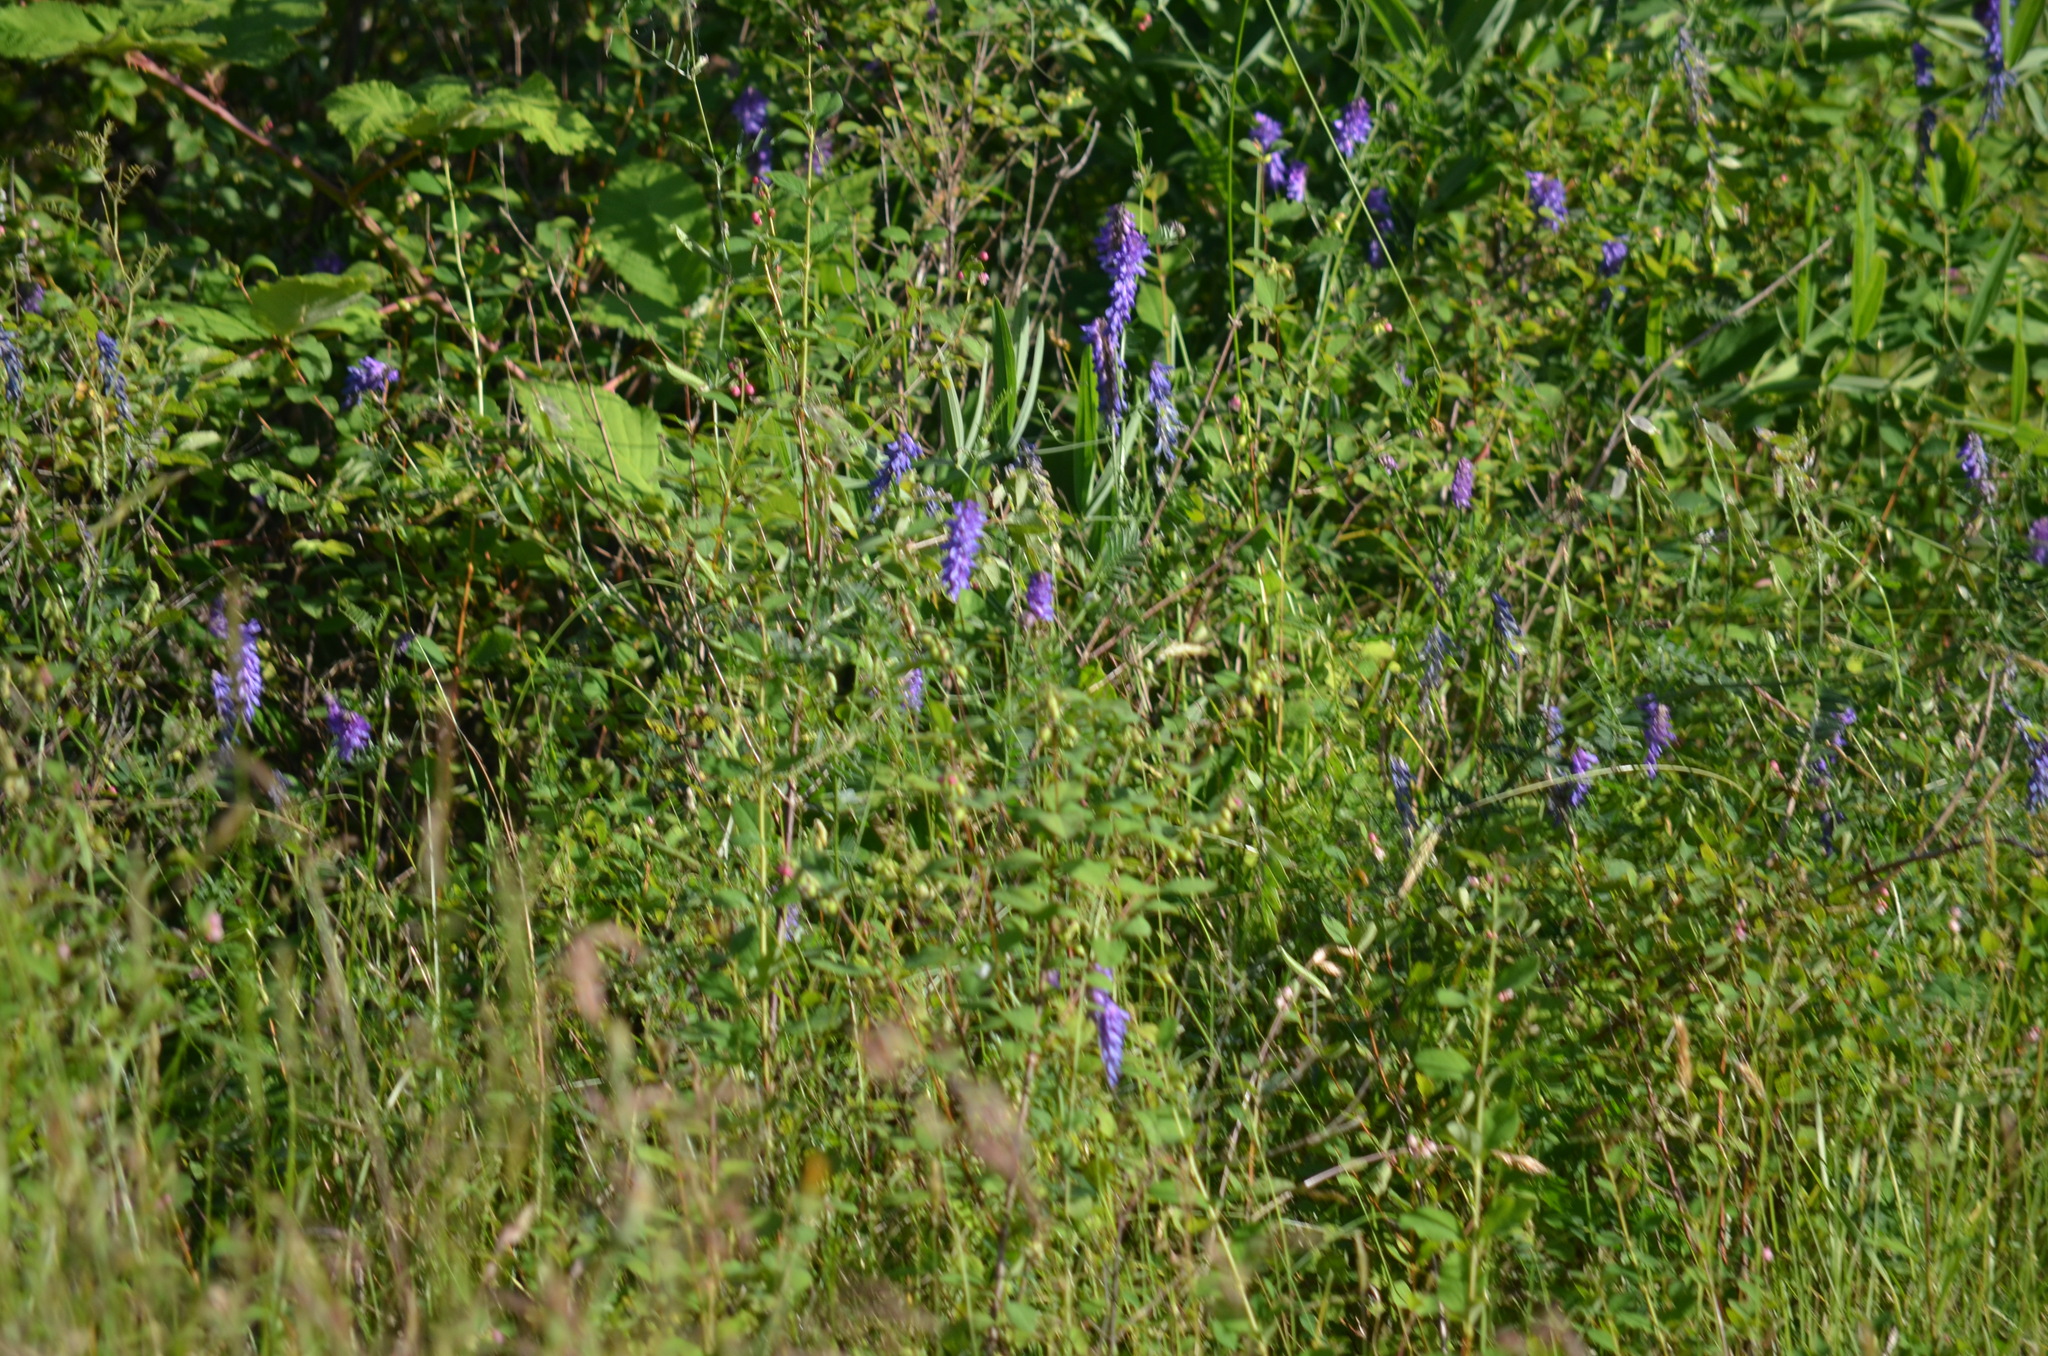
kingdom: Plantae
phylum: Tracheophyta
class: Magnoliopsida
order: Fabales
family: Fabaceae
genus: Vicia
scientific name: Vicia cracca
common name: Bird vetch
